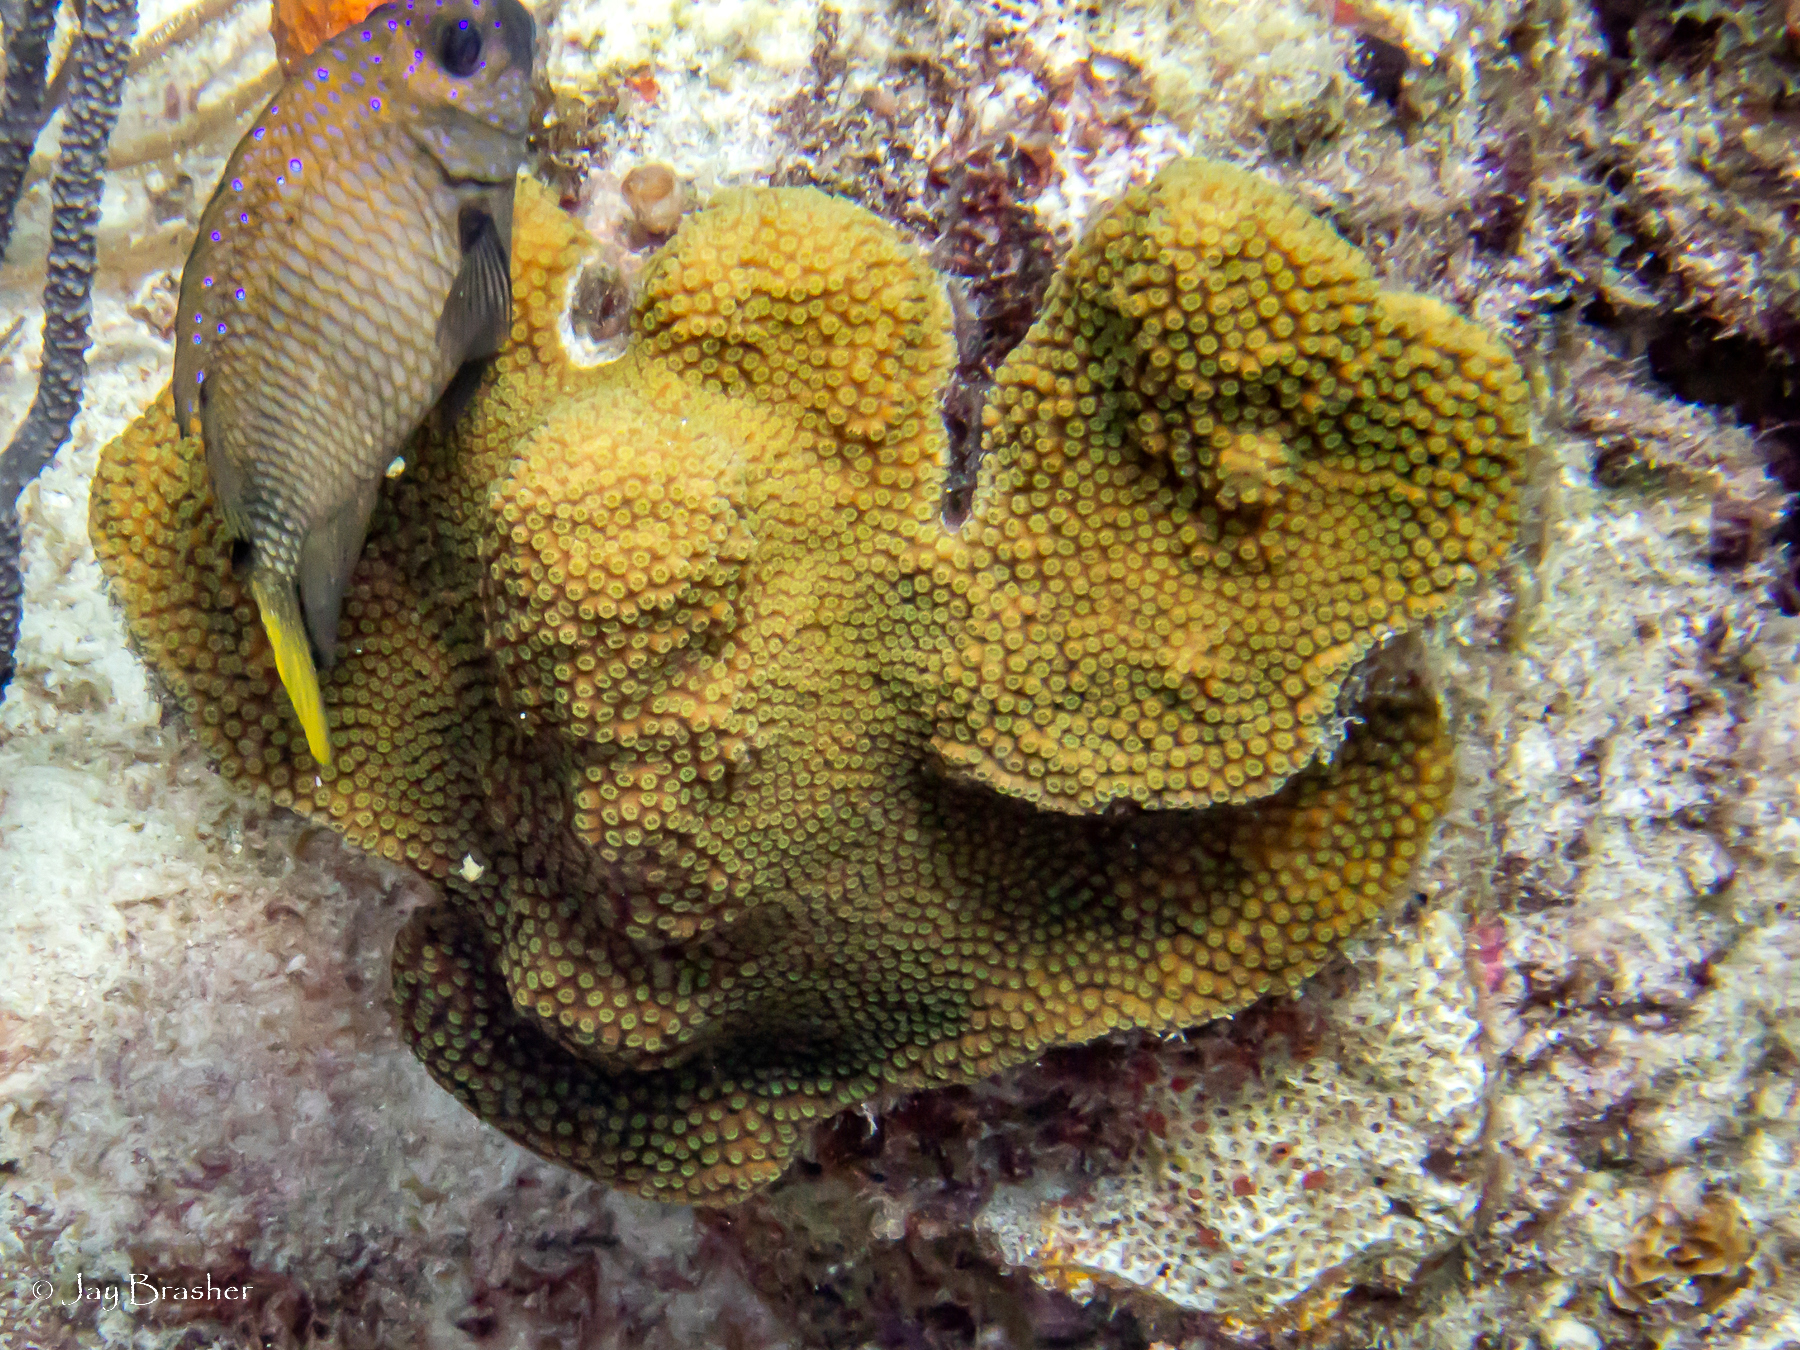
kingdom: Animalia
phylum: Cnidaria
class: Anthozoa
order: Scleractinia
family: Merulinidae
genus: Orbicella
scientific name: Orbicella faveolata
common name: Mountainous star coral
